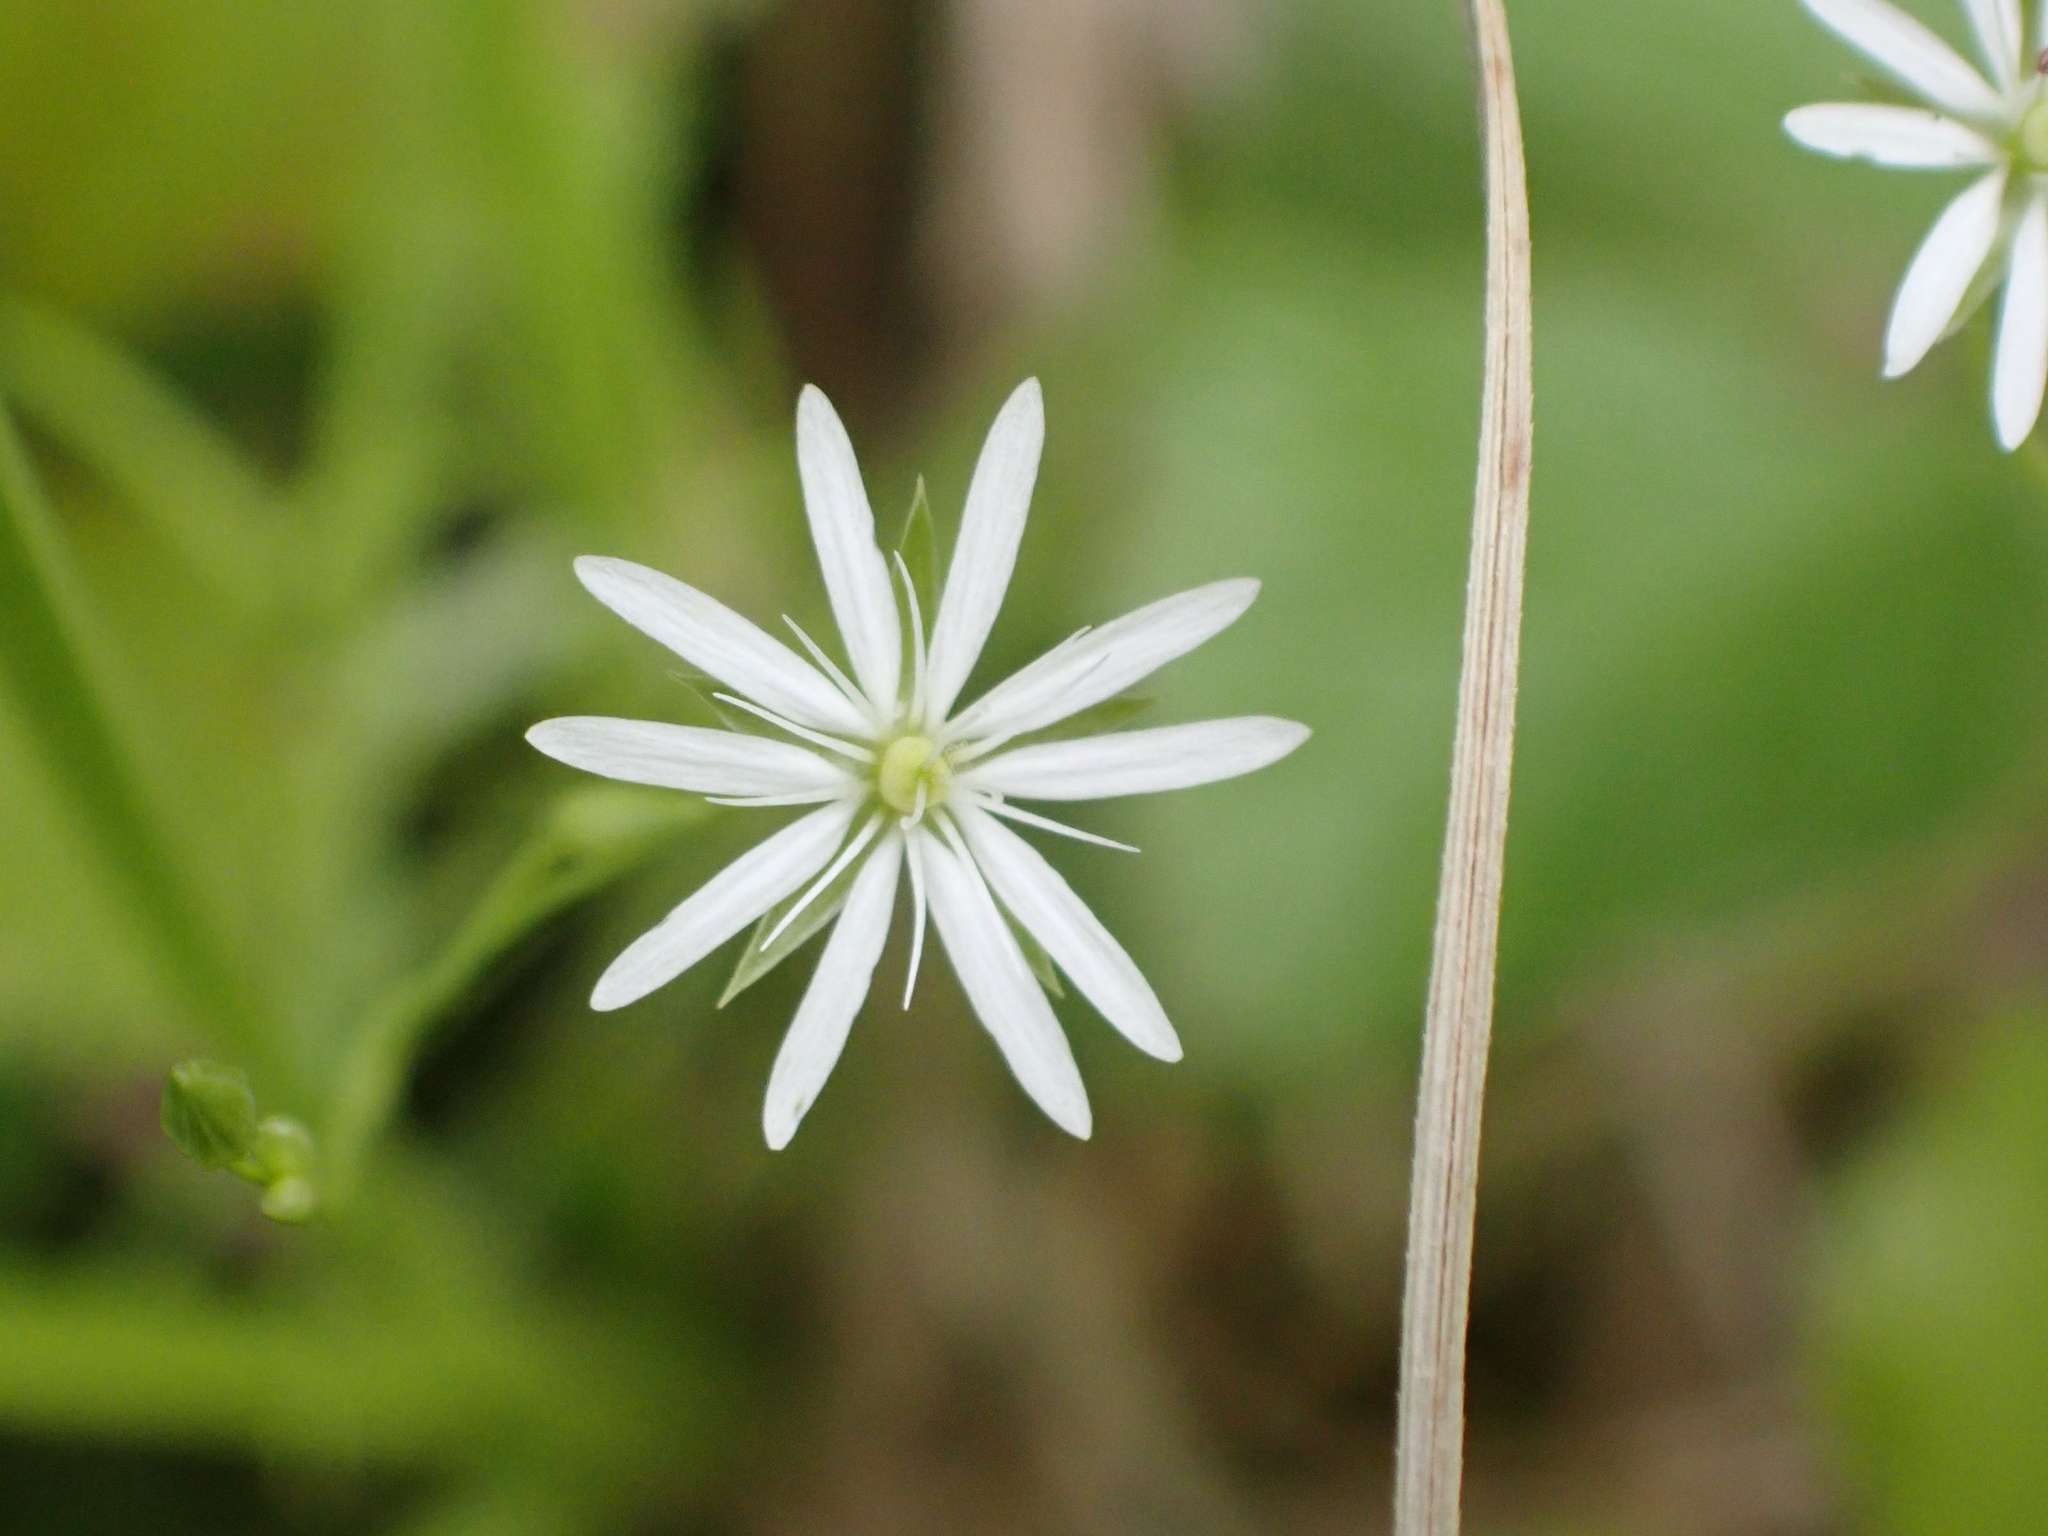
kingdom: Plantae
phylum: Tracheophyta
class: Magnoliopsida
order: Caryophyllales
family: Caryophyllaceae
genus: Stellaria
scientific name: Stellaria longifolia
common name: Long-leaved chickweed
